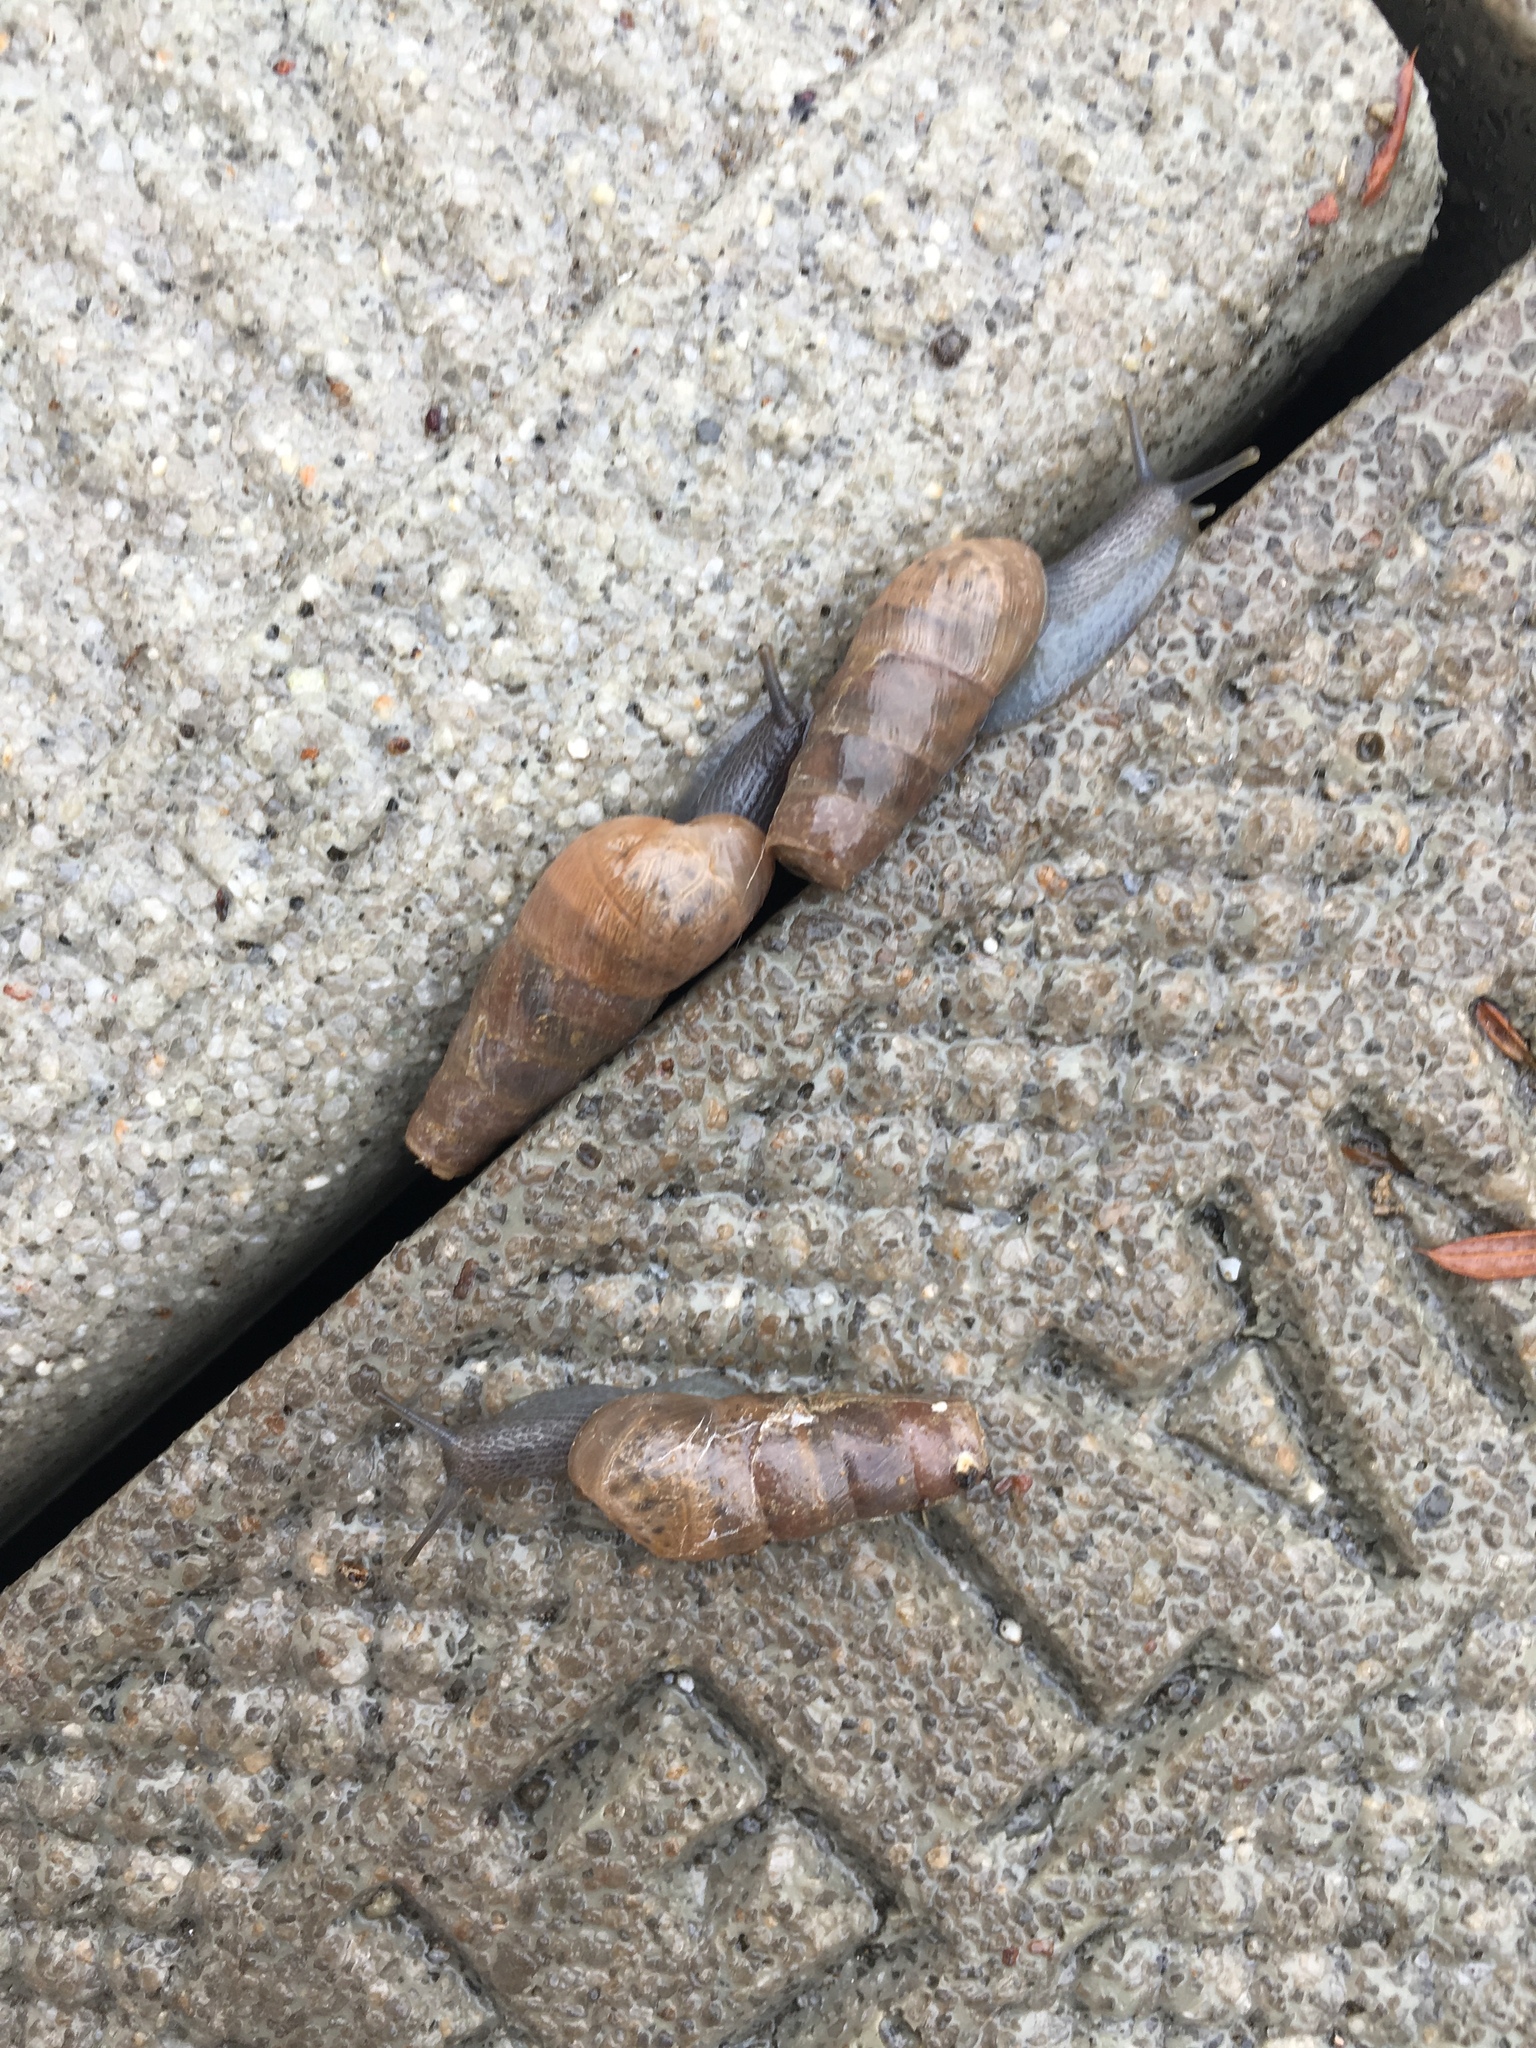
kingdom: Animalia
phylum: Mollusca
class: Gastropoda
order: Stylommatophora
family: Achatinidae
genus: Rumina
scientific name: Rumina decollata
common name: Decollate snail
